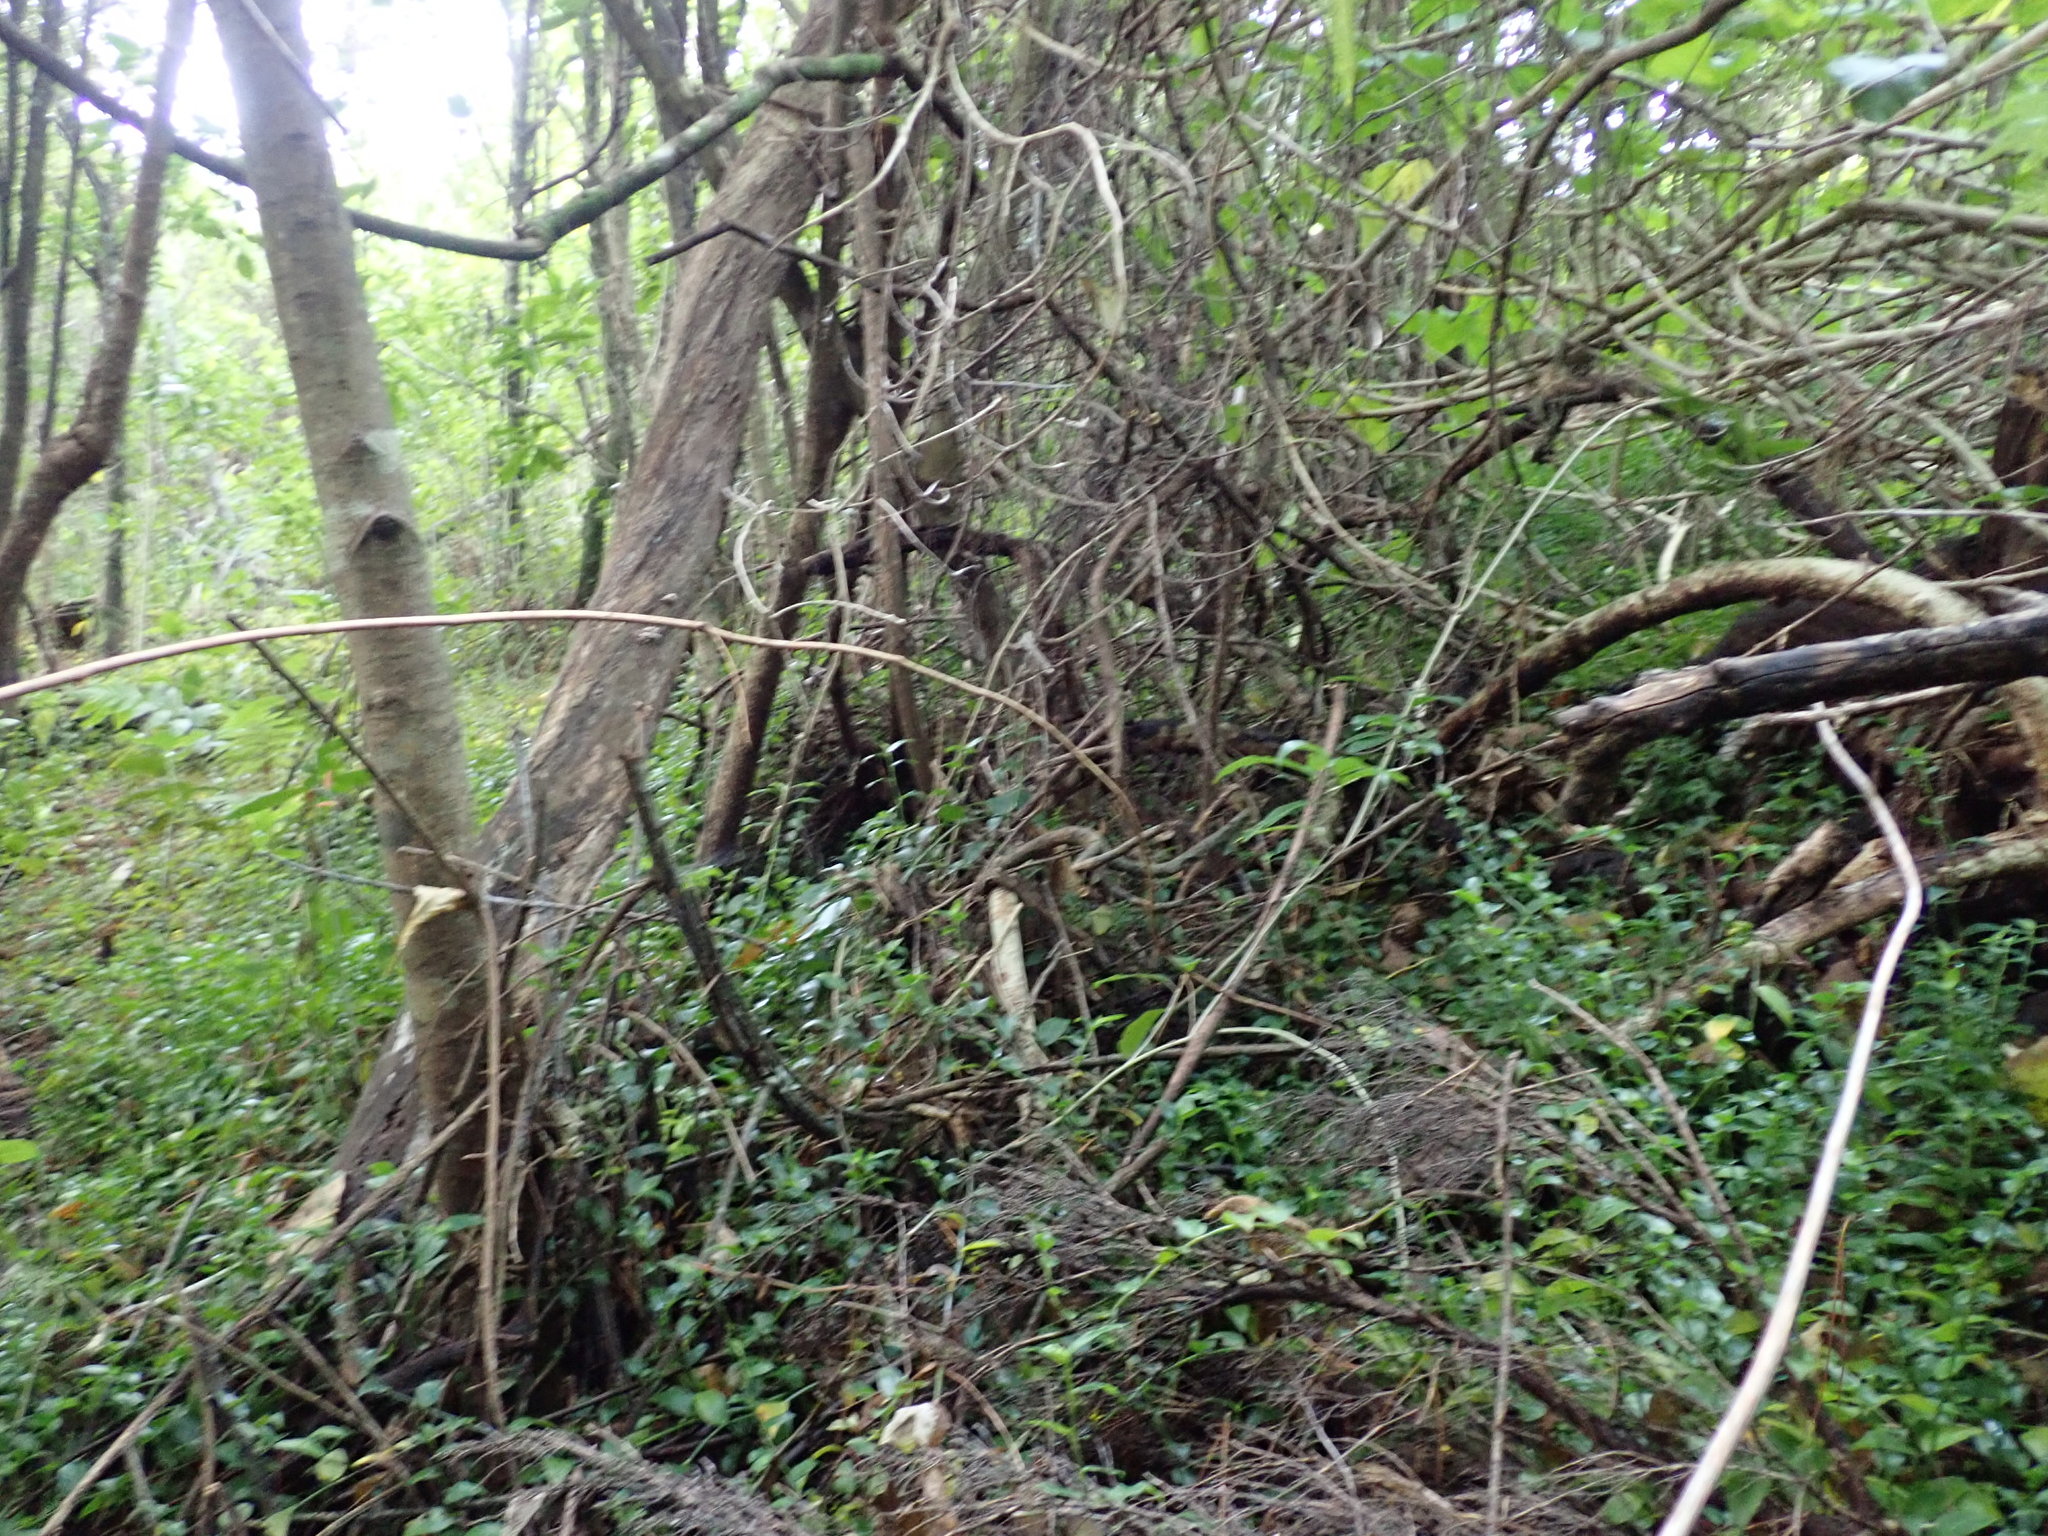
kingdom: Plantae
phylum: Tracheophyta
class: Liliopsida
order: Commelinales
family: Commelinaceae
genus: Tradescantia
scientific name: Tradescantia fluminensis
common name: Wandering-jew
